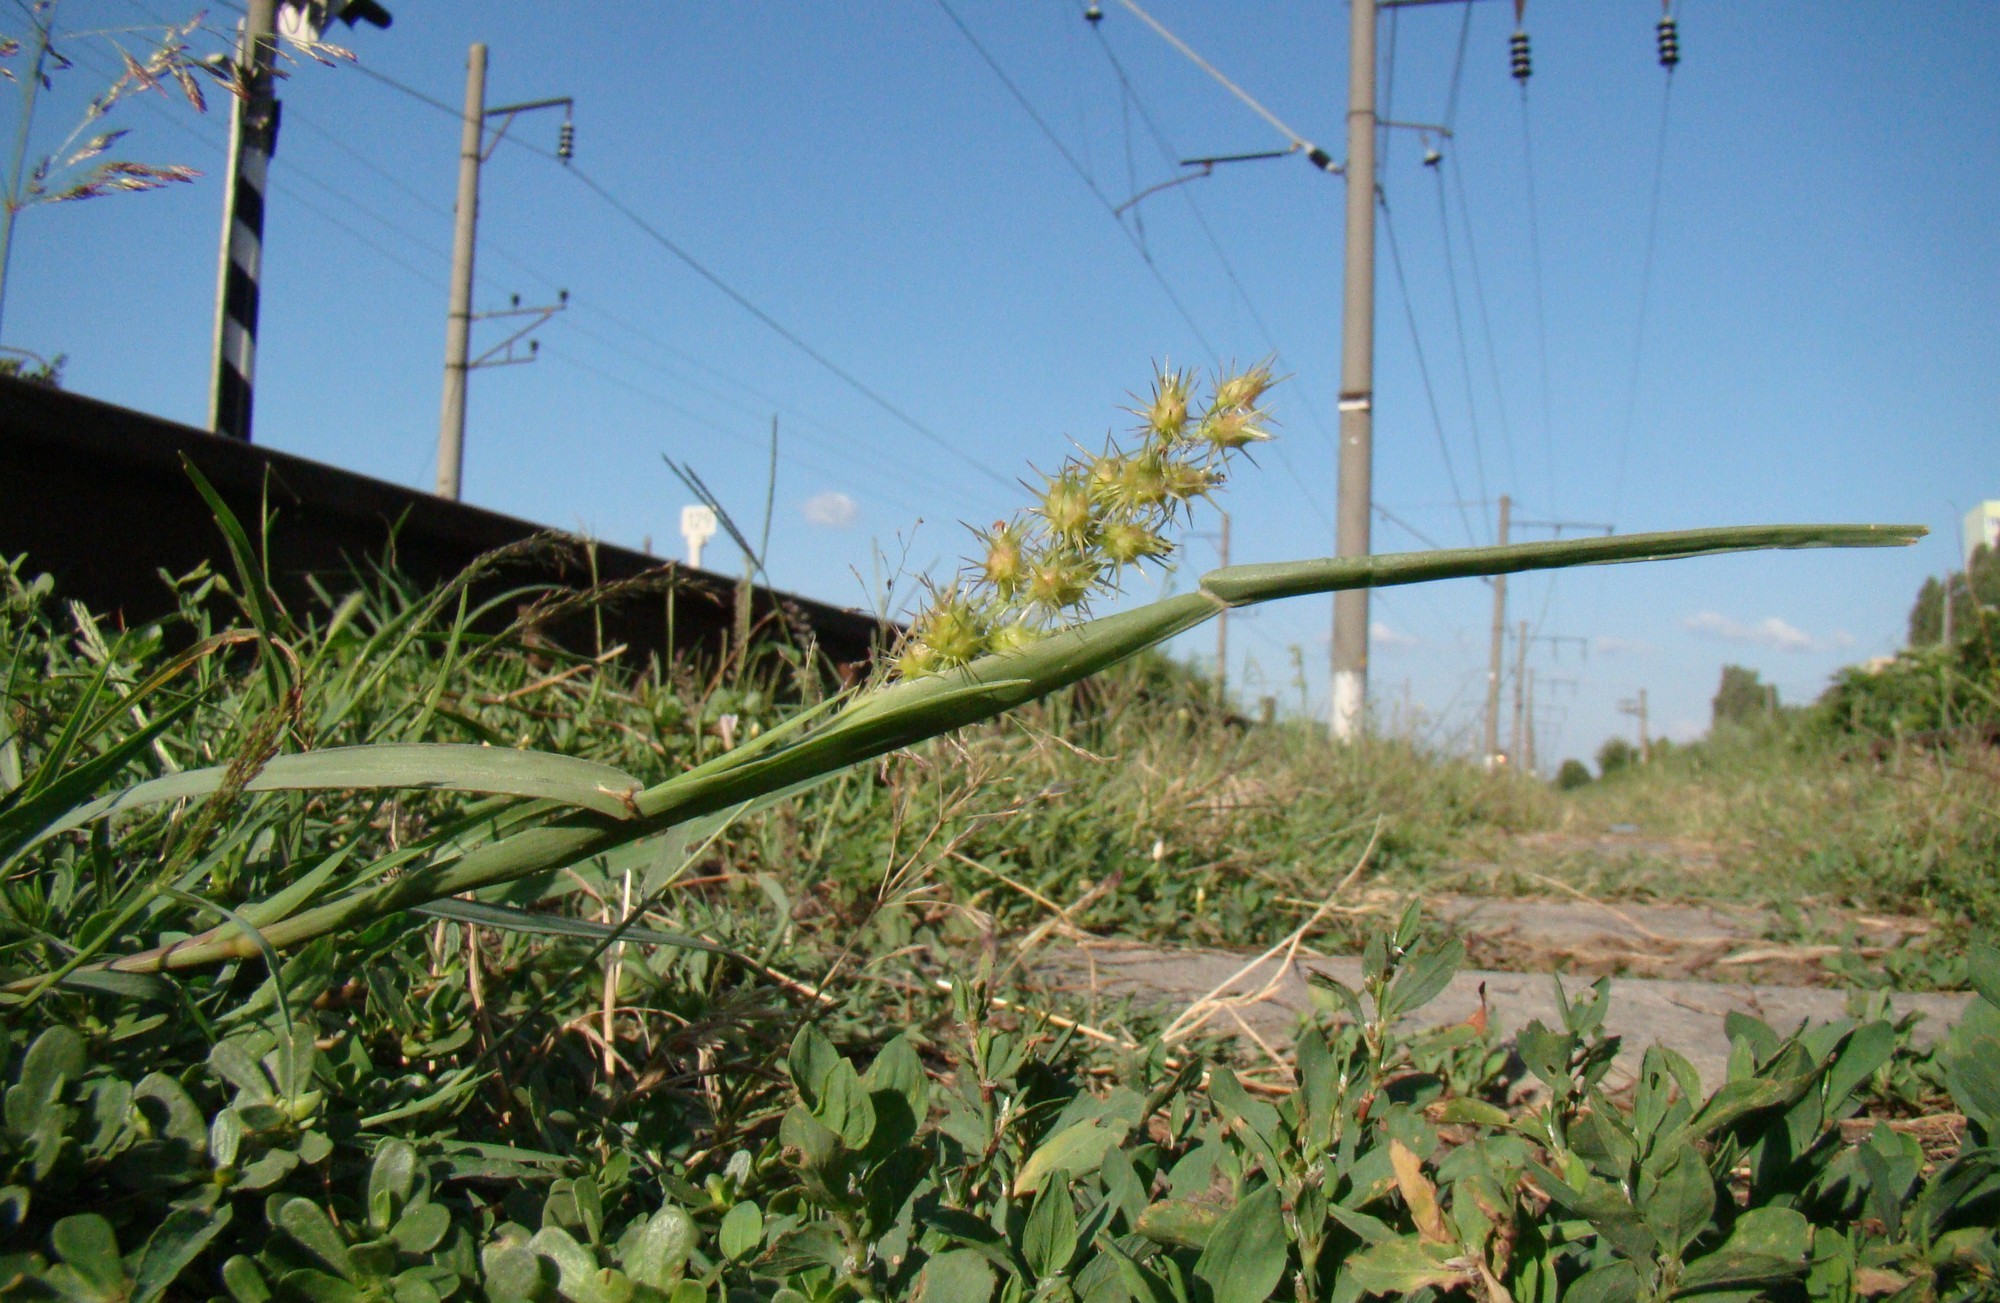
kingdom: Plantae
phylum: Tracheophyta
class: Liliopsida
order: Poales
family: Poaceae
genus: Cenchrus
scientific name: Cenchrus longispinus
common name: Mat sandbur
